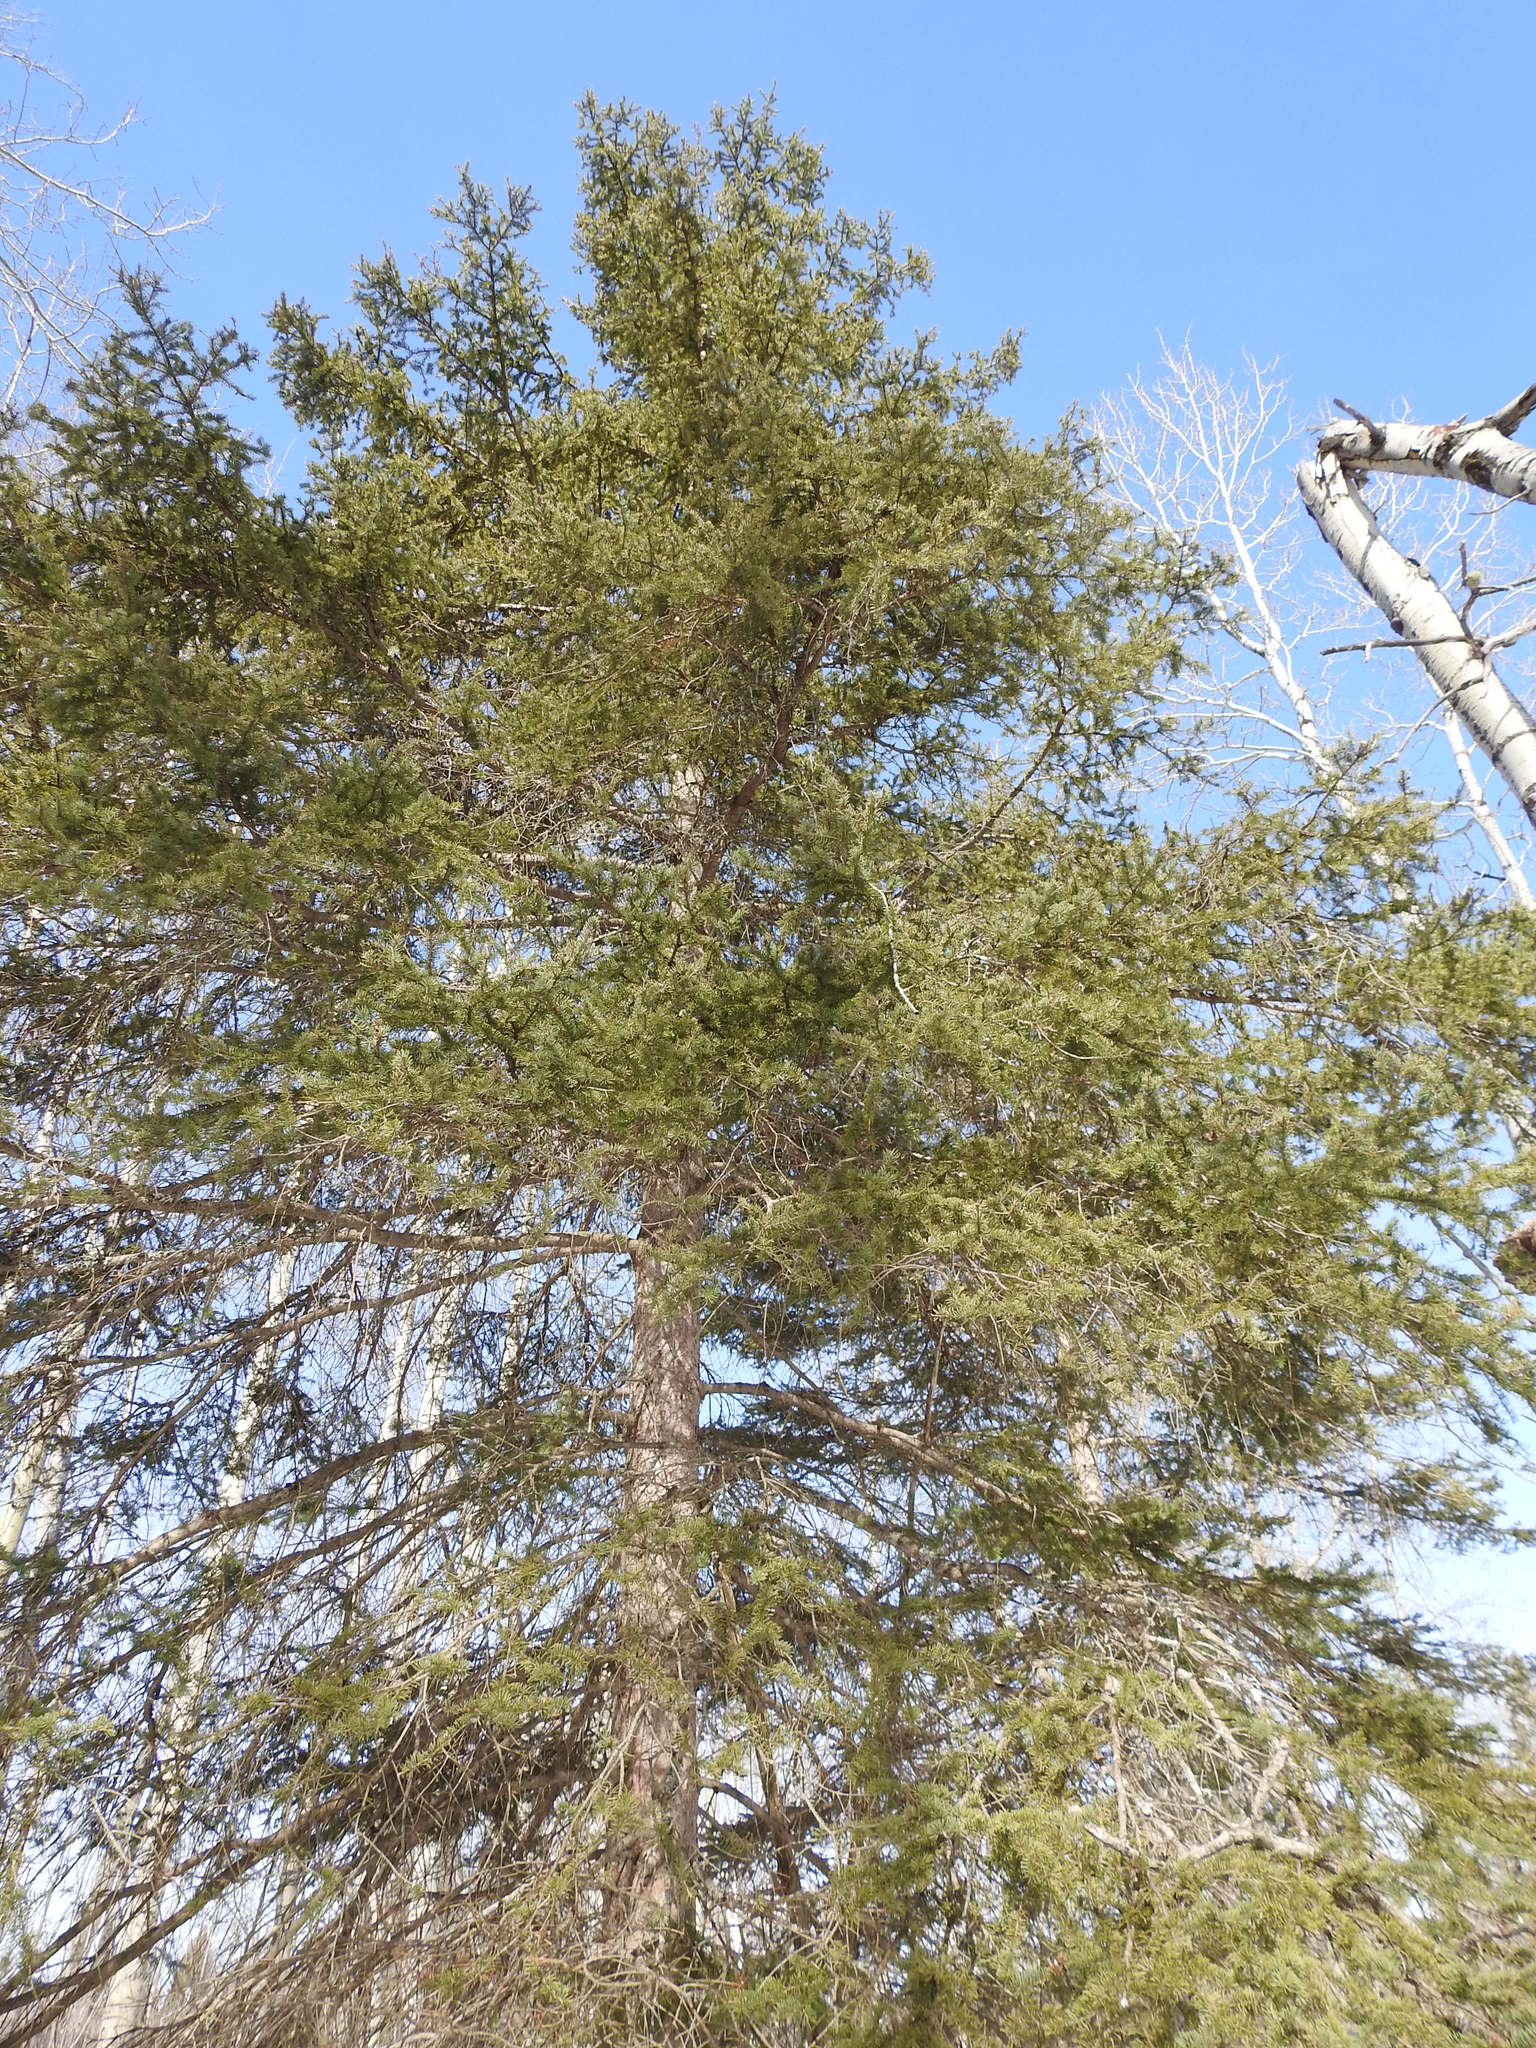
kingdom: Plantae
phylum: Tracheophyta
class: Pinopsida
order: Pinales
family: Pinaceae
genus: Picea
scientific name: Picea glauca
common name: White spruce
